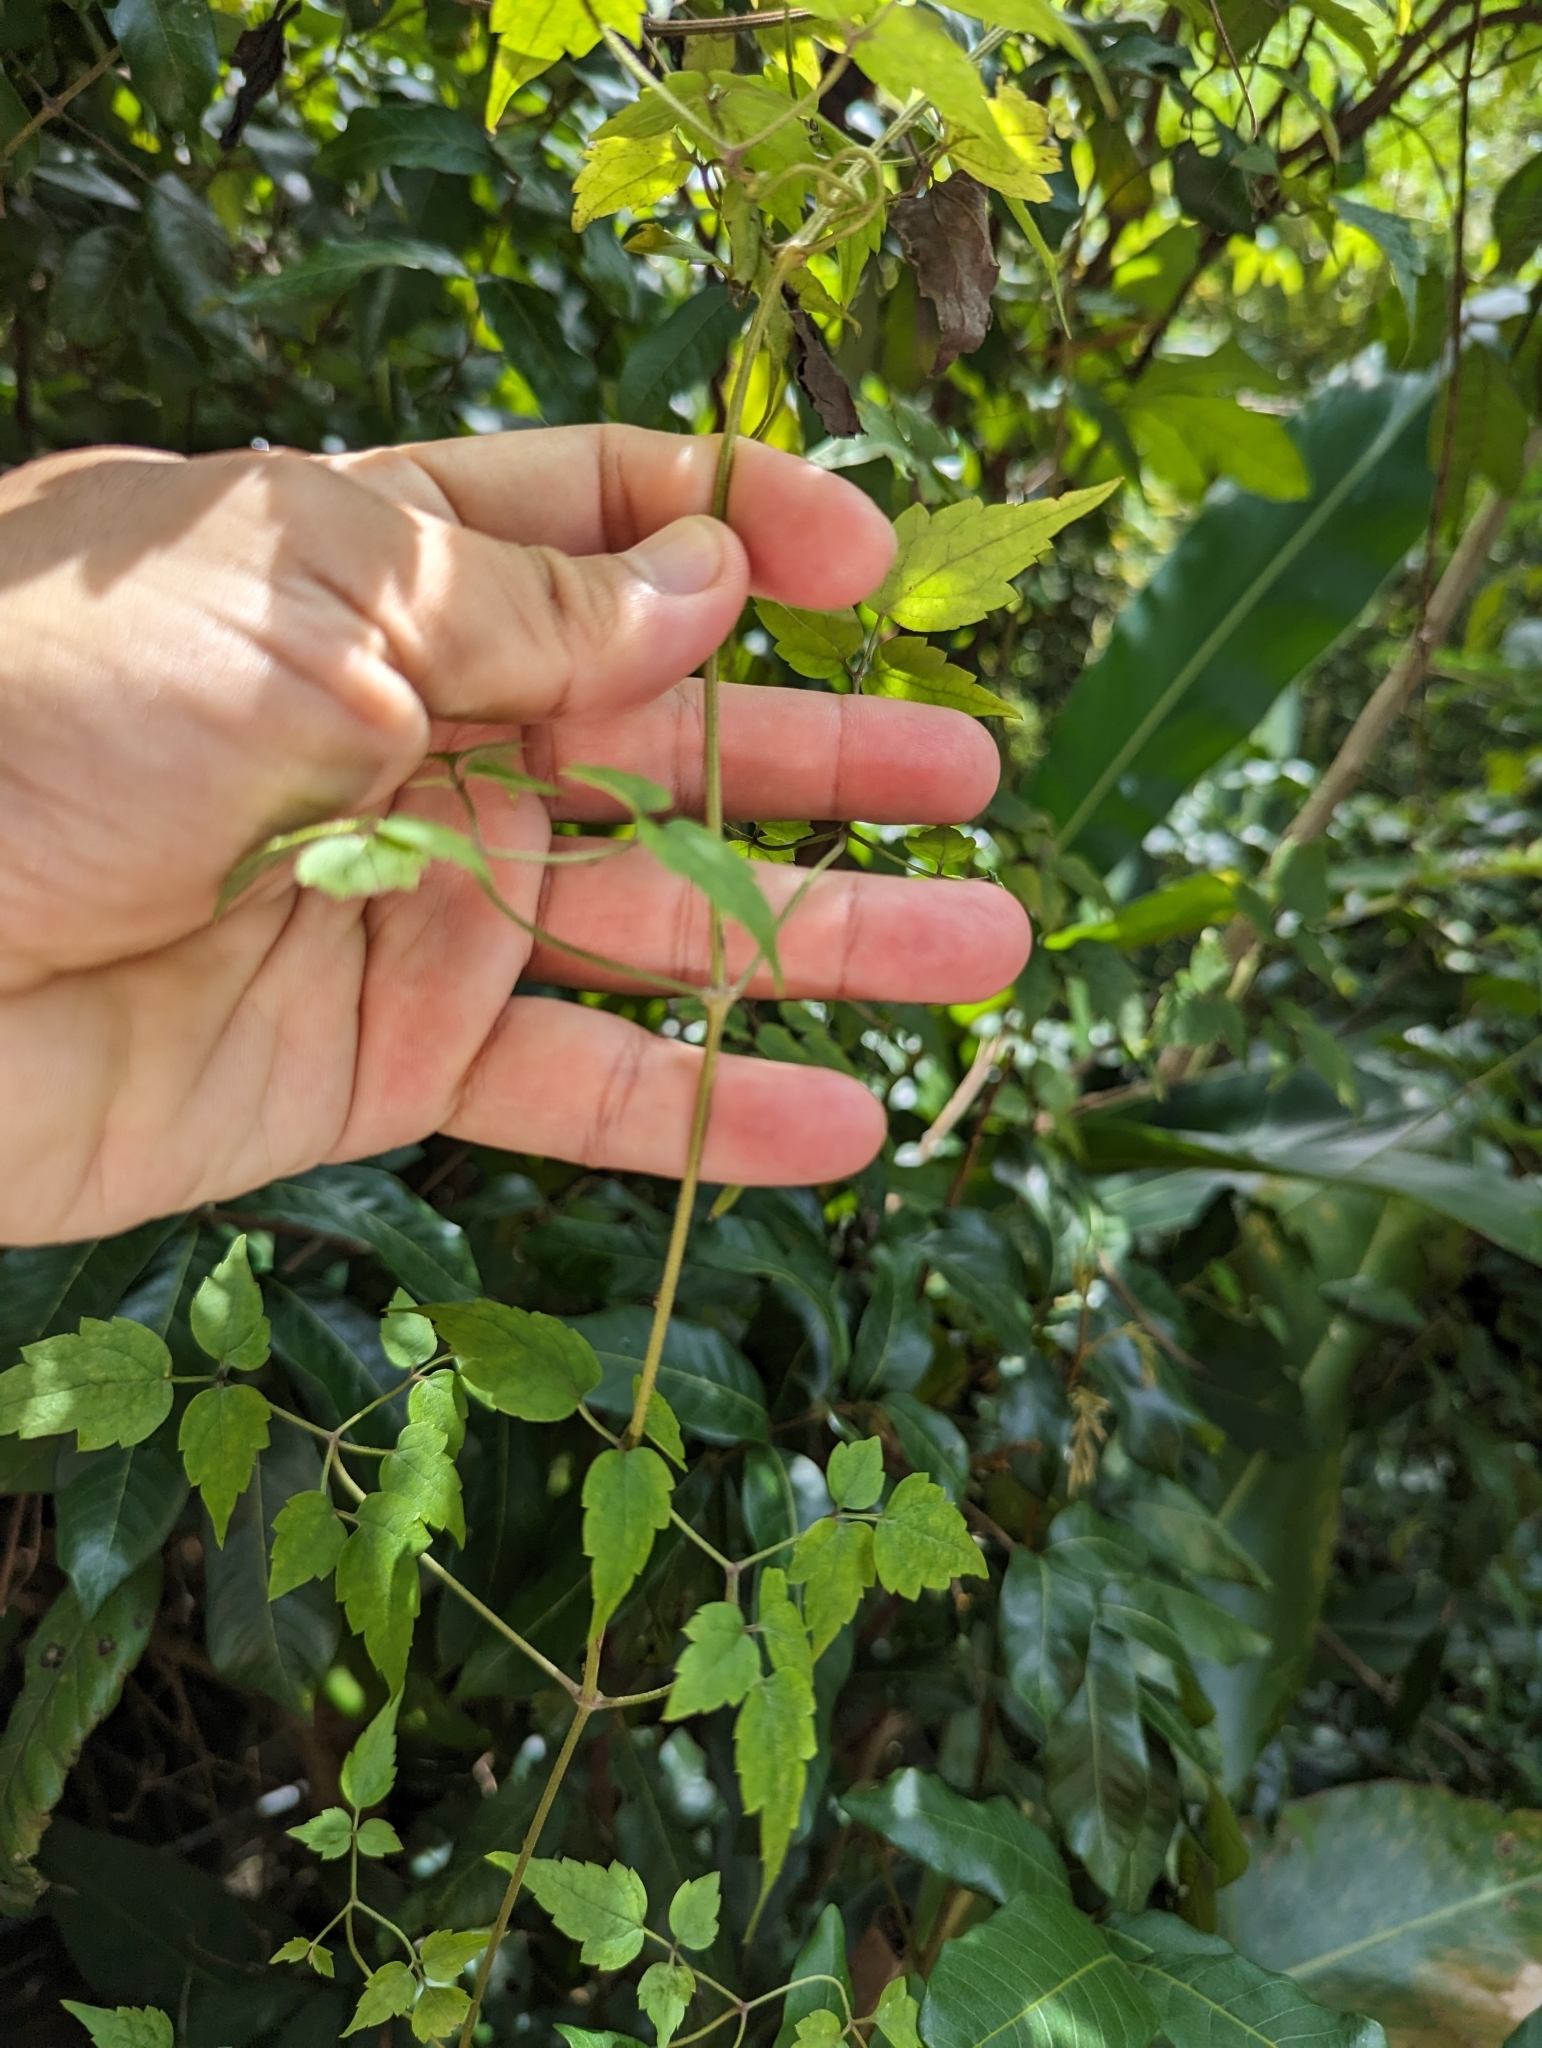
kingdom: Plantae
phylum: Tracheophyta
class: Magnoliopsida
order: Ranunculales
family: Ranunculaceae
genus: Clematis
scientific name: Clematis grata
